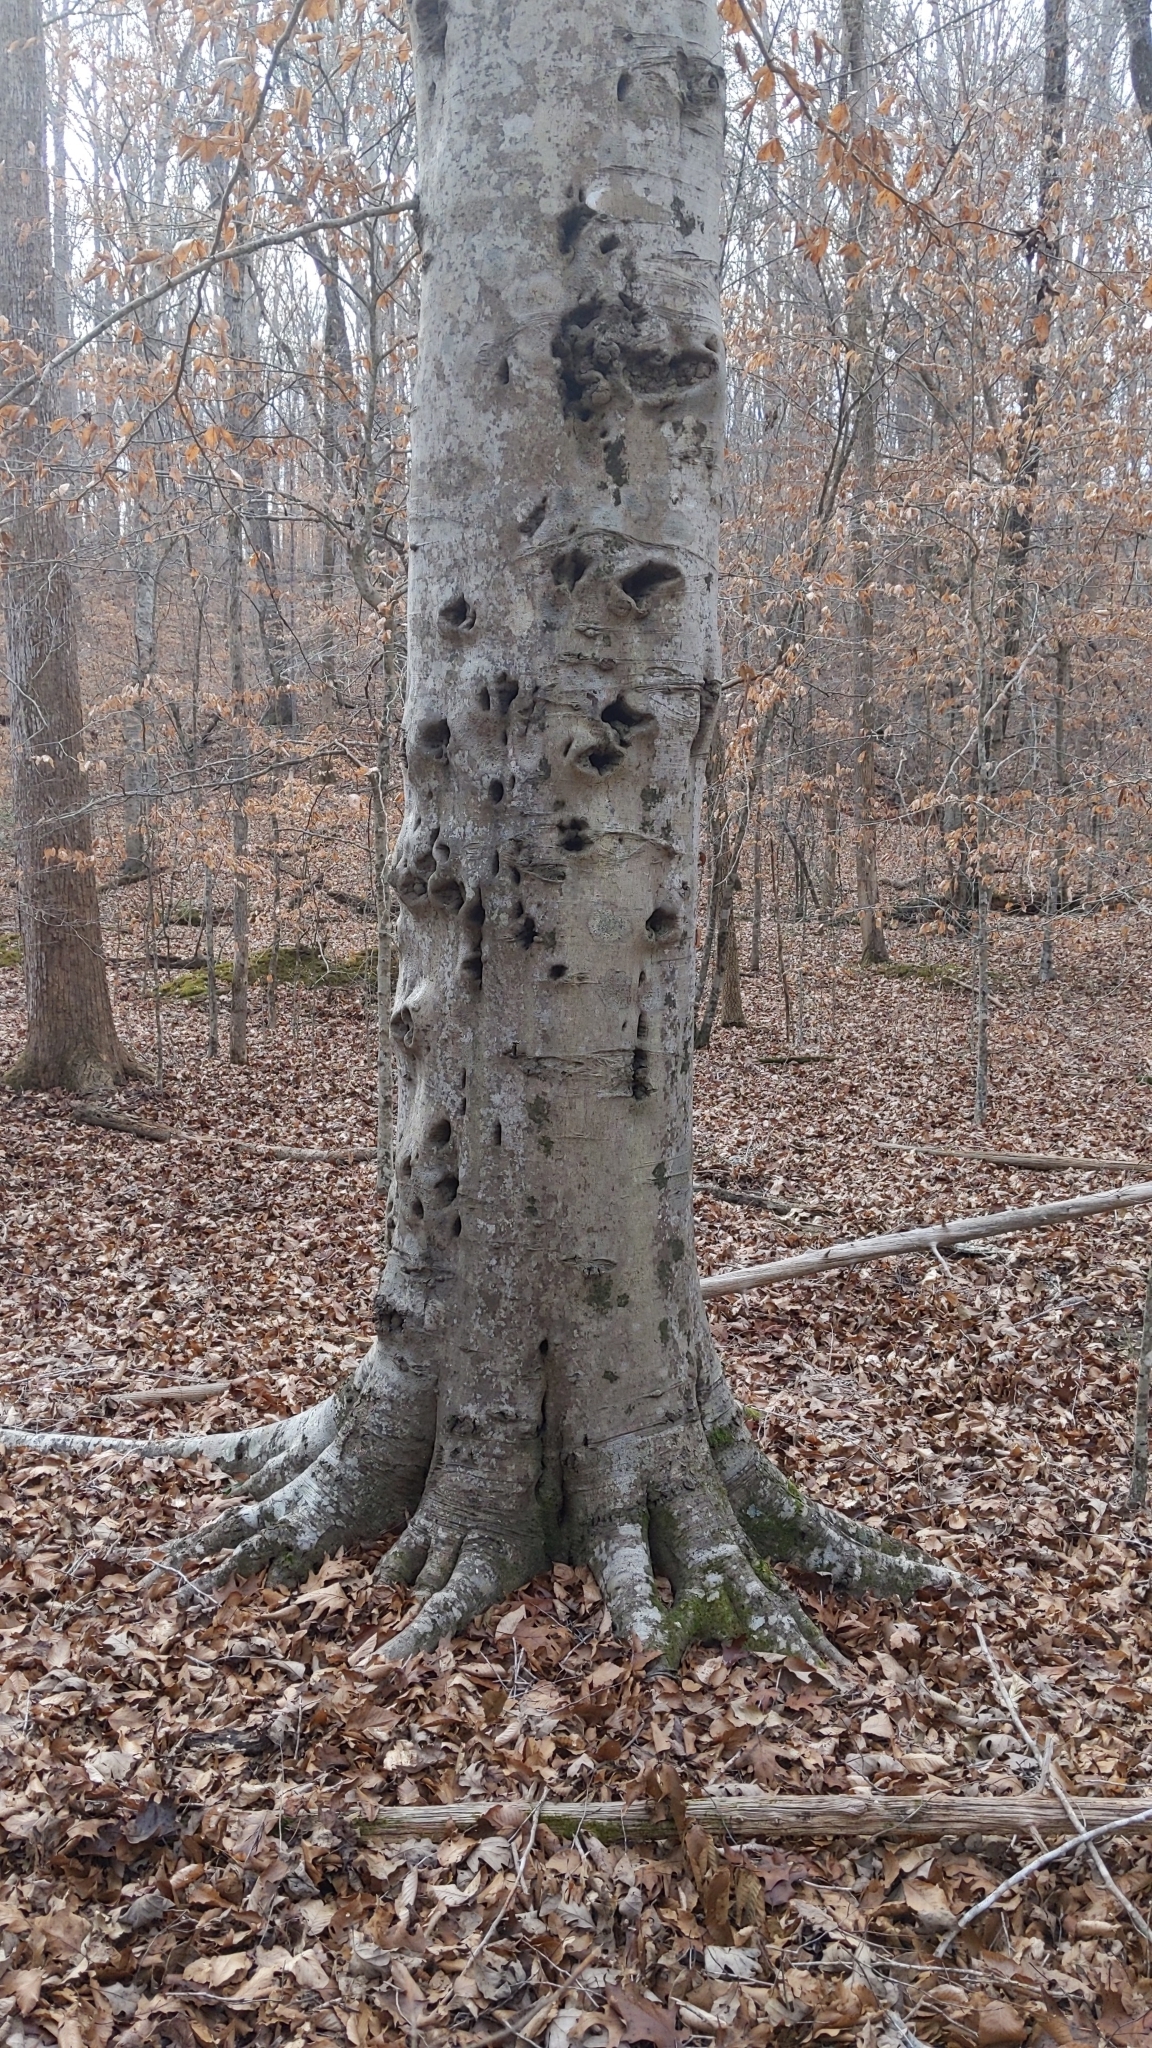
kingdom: Plantae
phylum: Tracheophyta
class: Magnoliopsida
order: Fagales
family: Fagaceae
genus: Fagus
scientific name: Fagus grandifolia
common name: American beech
